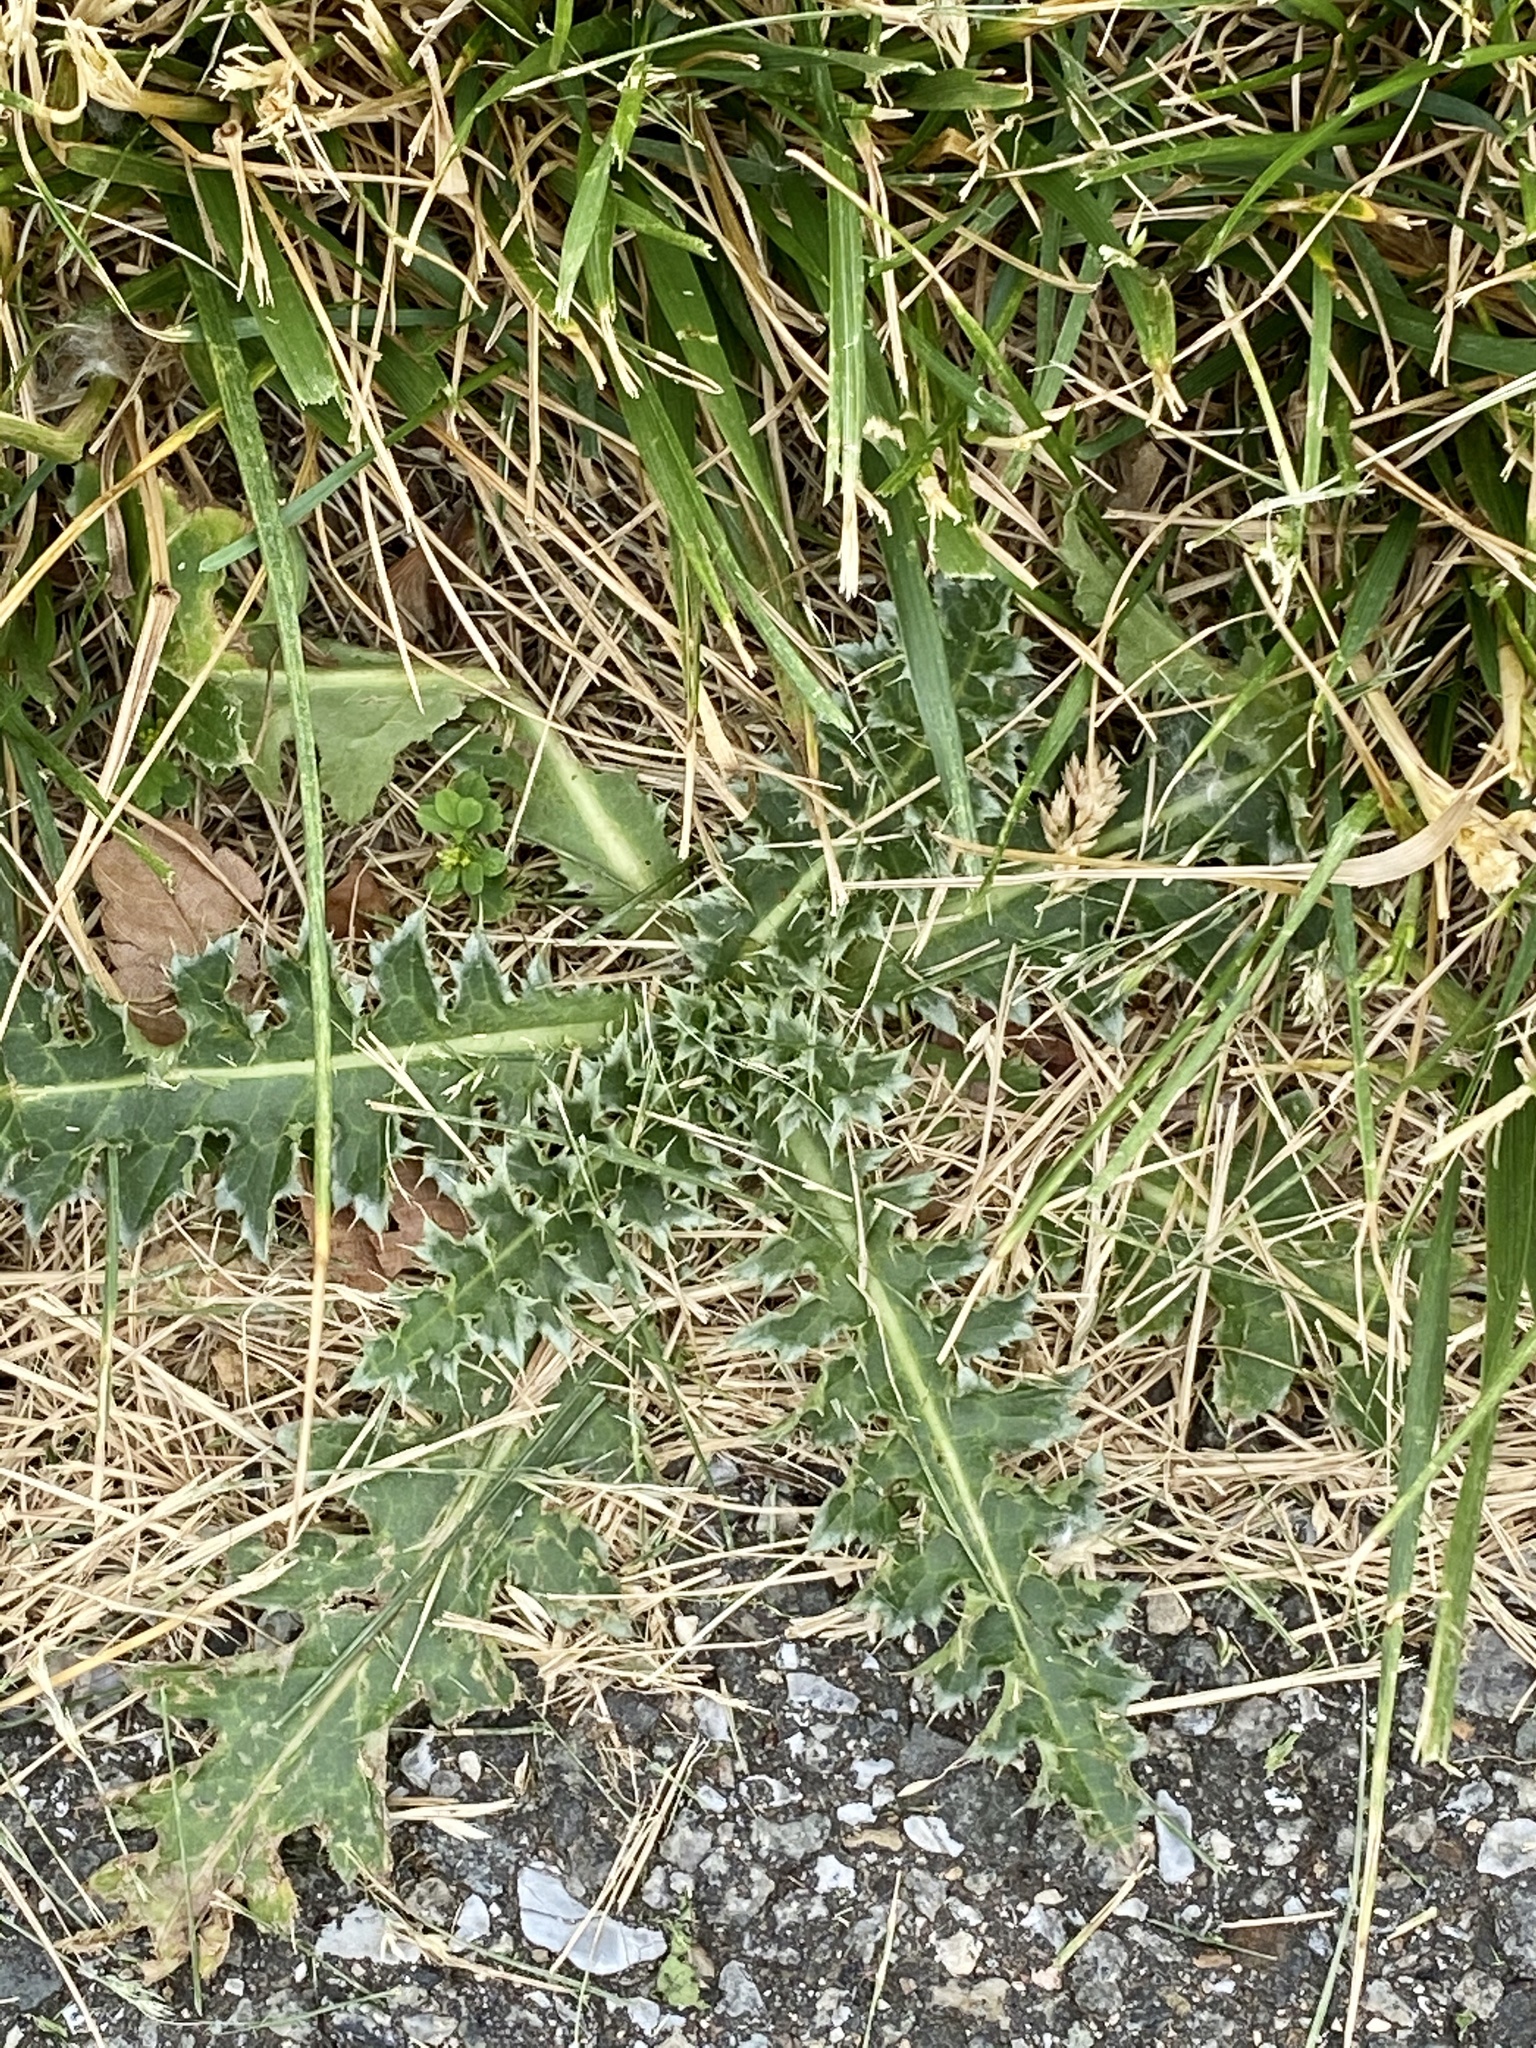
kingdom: Plantae
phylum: Tracheophyta
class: Magnoliopsida
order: Asterales
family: Asteraceae
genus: Carduus
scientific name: Carduus nutans
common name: Musk thistle
